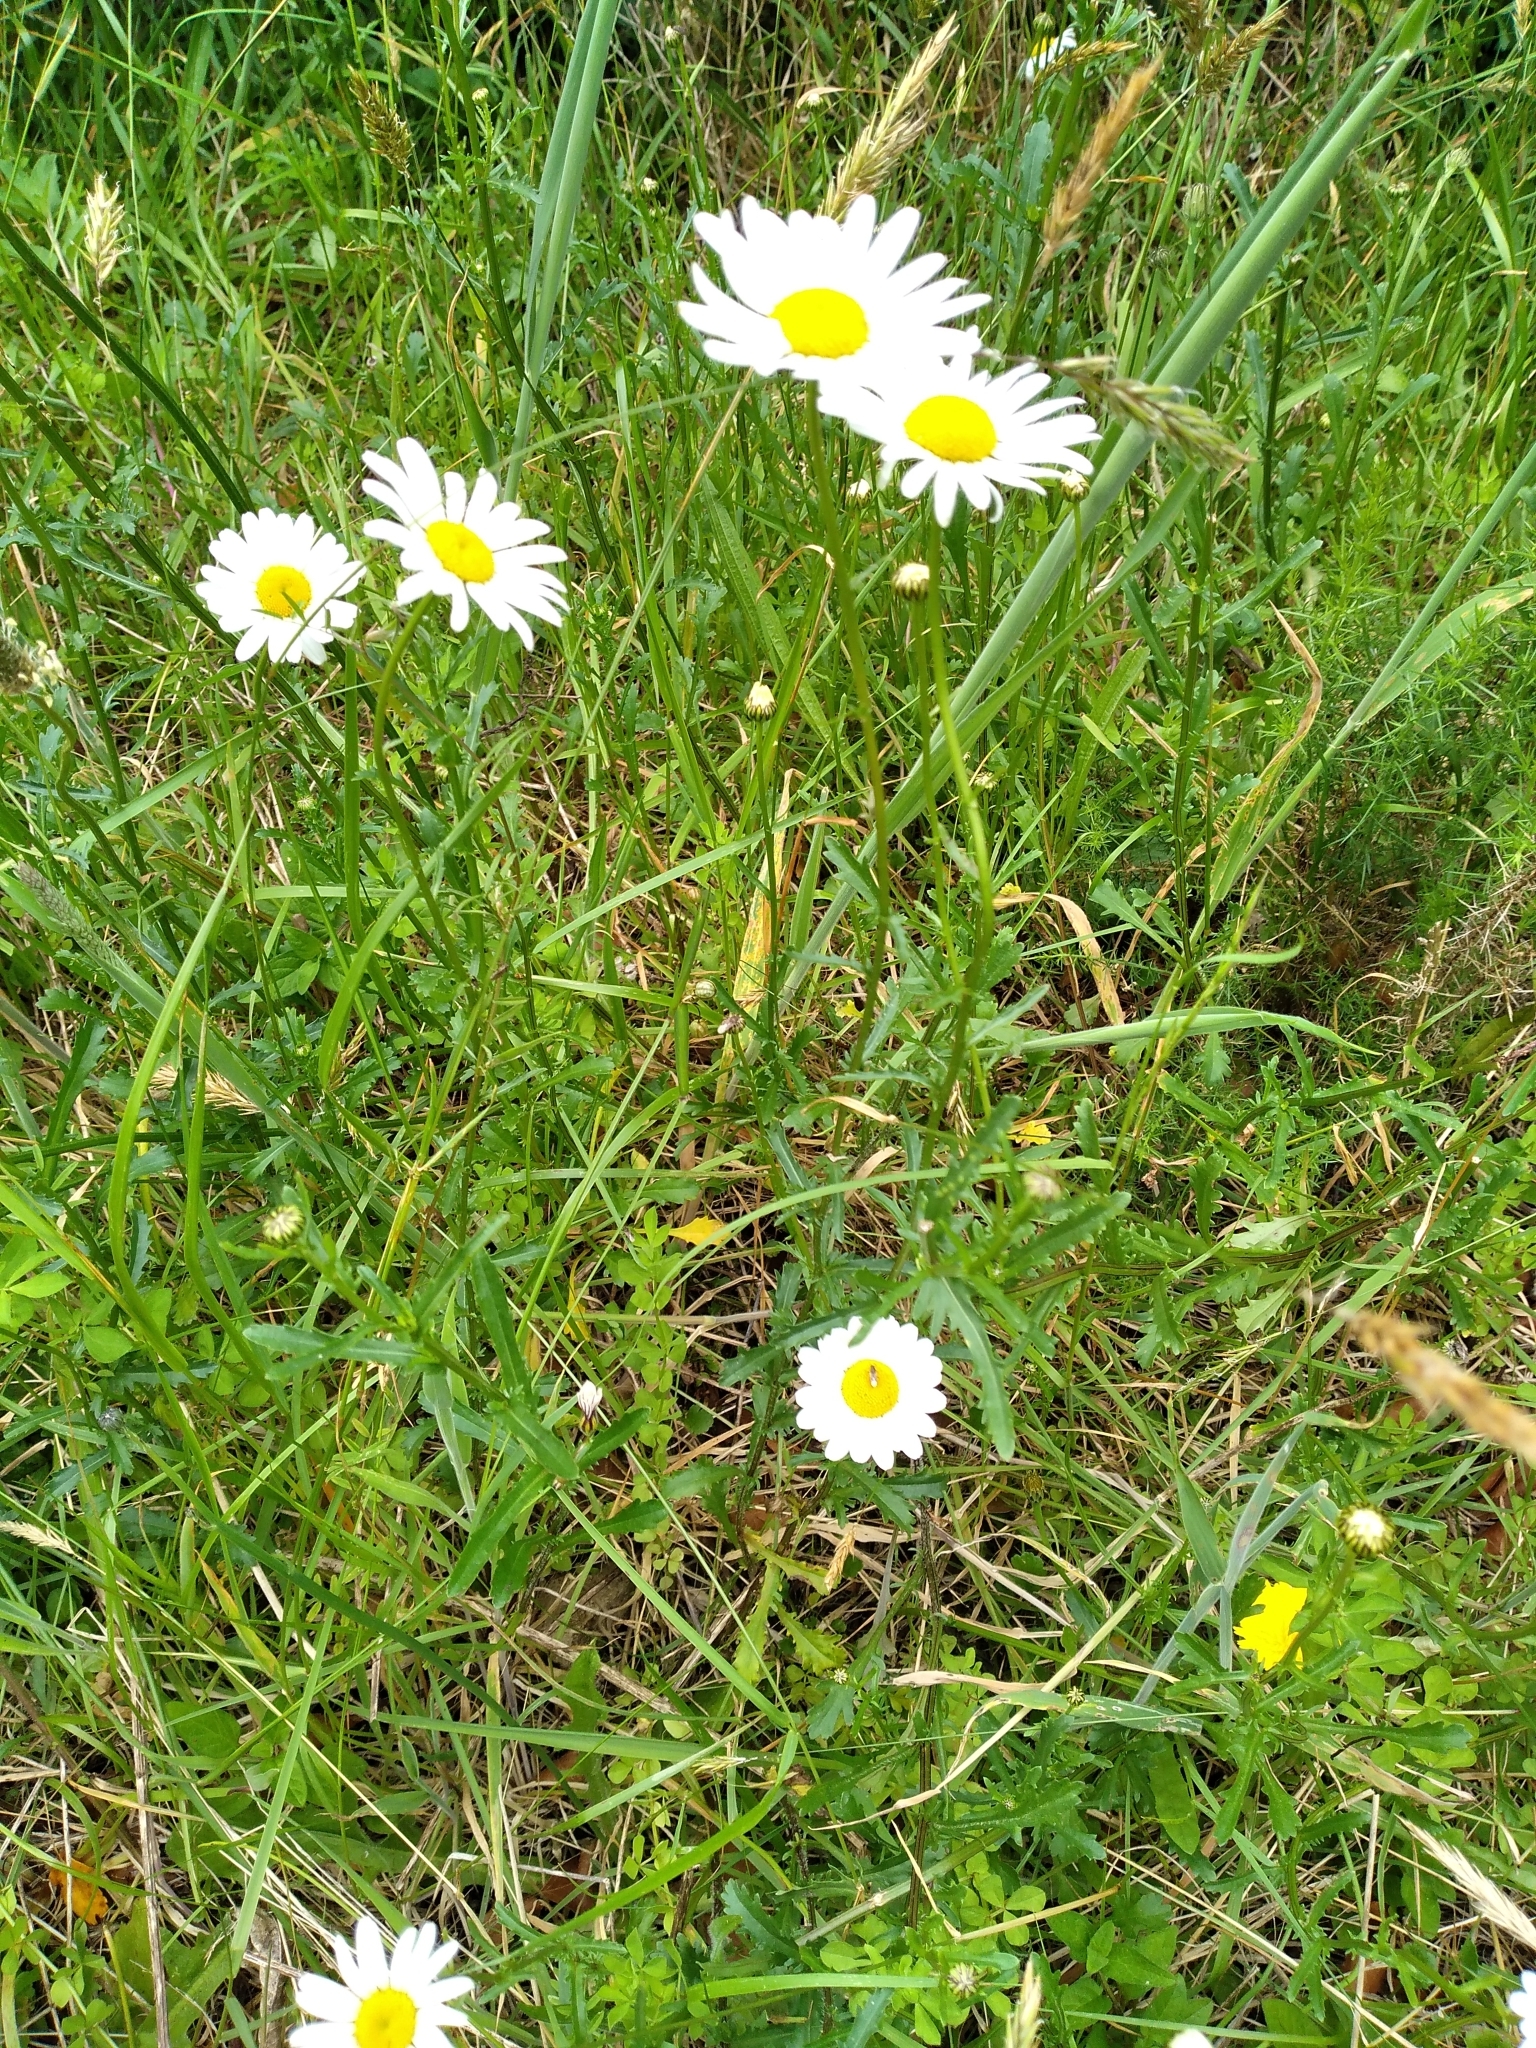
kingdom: Plantae
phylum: Tracheophyta
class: Magnoliopsida
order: Asterales
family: Asteraceae
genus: Leucanthemum
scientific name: Leucanthemum vulgare
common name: Oxeye daisy
